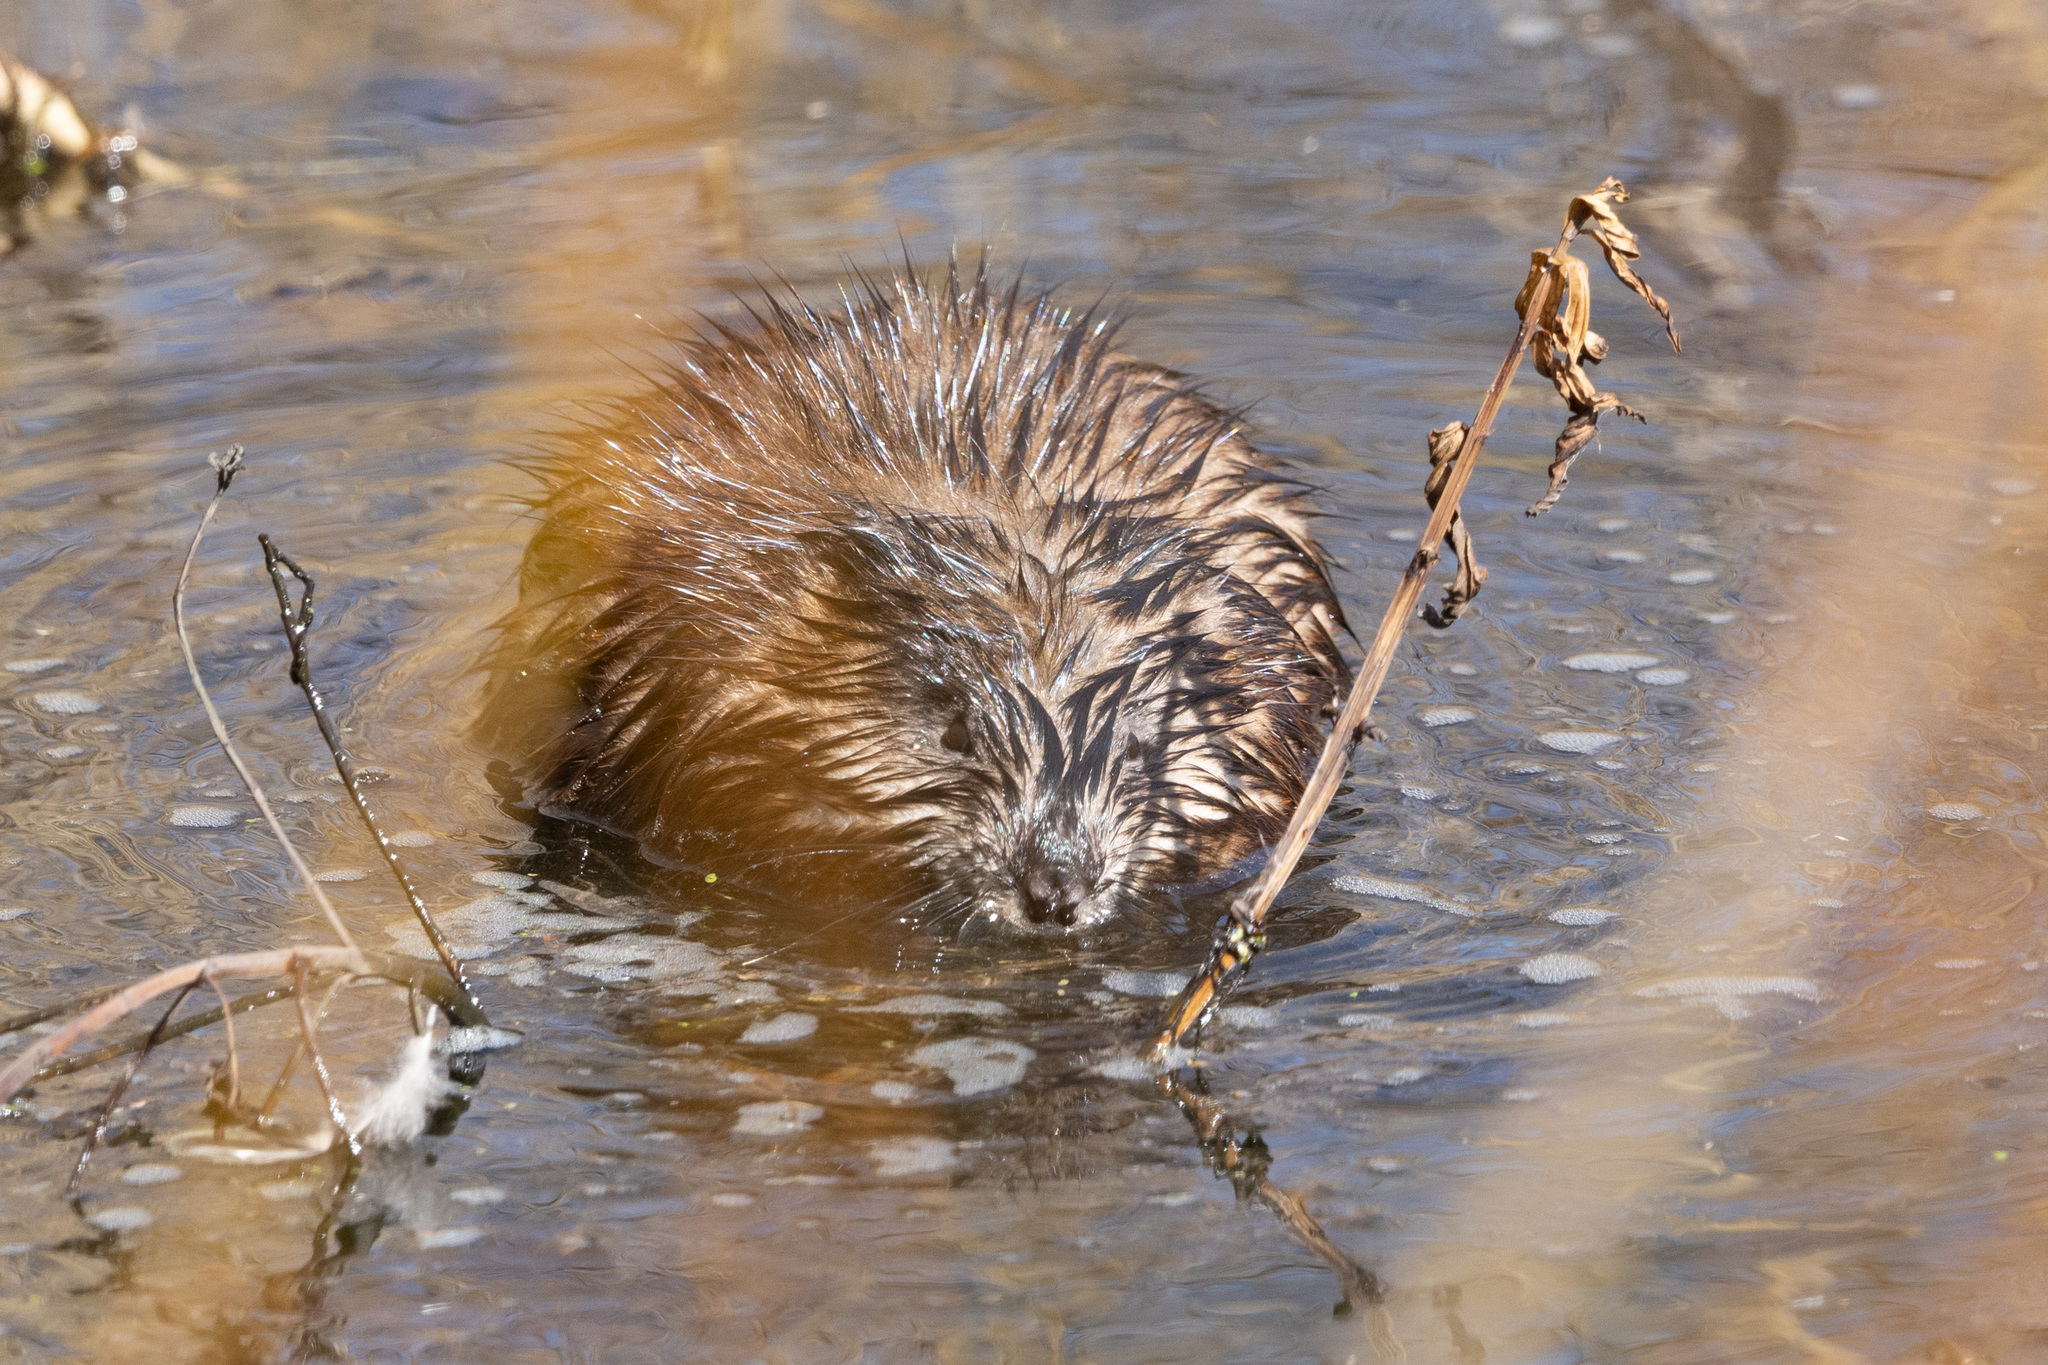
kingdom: Animalia
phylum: Chordata
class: Mammalia
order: Rodentia
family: Cricetidae
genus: Ondatra
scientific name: Ondatra zibethicus
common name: Muskrat
